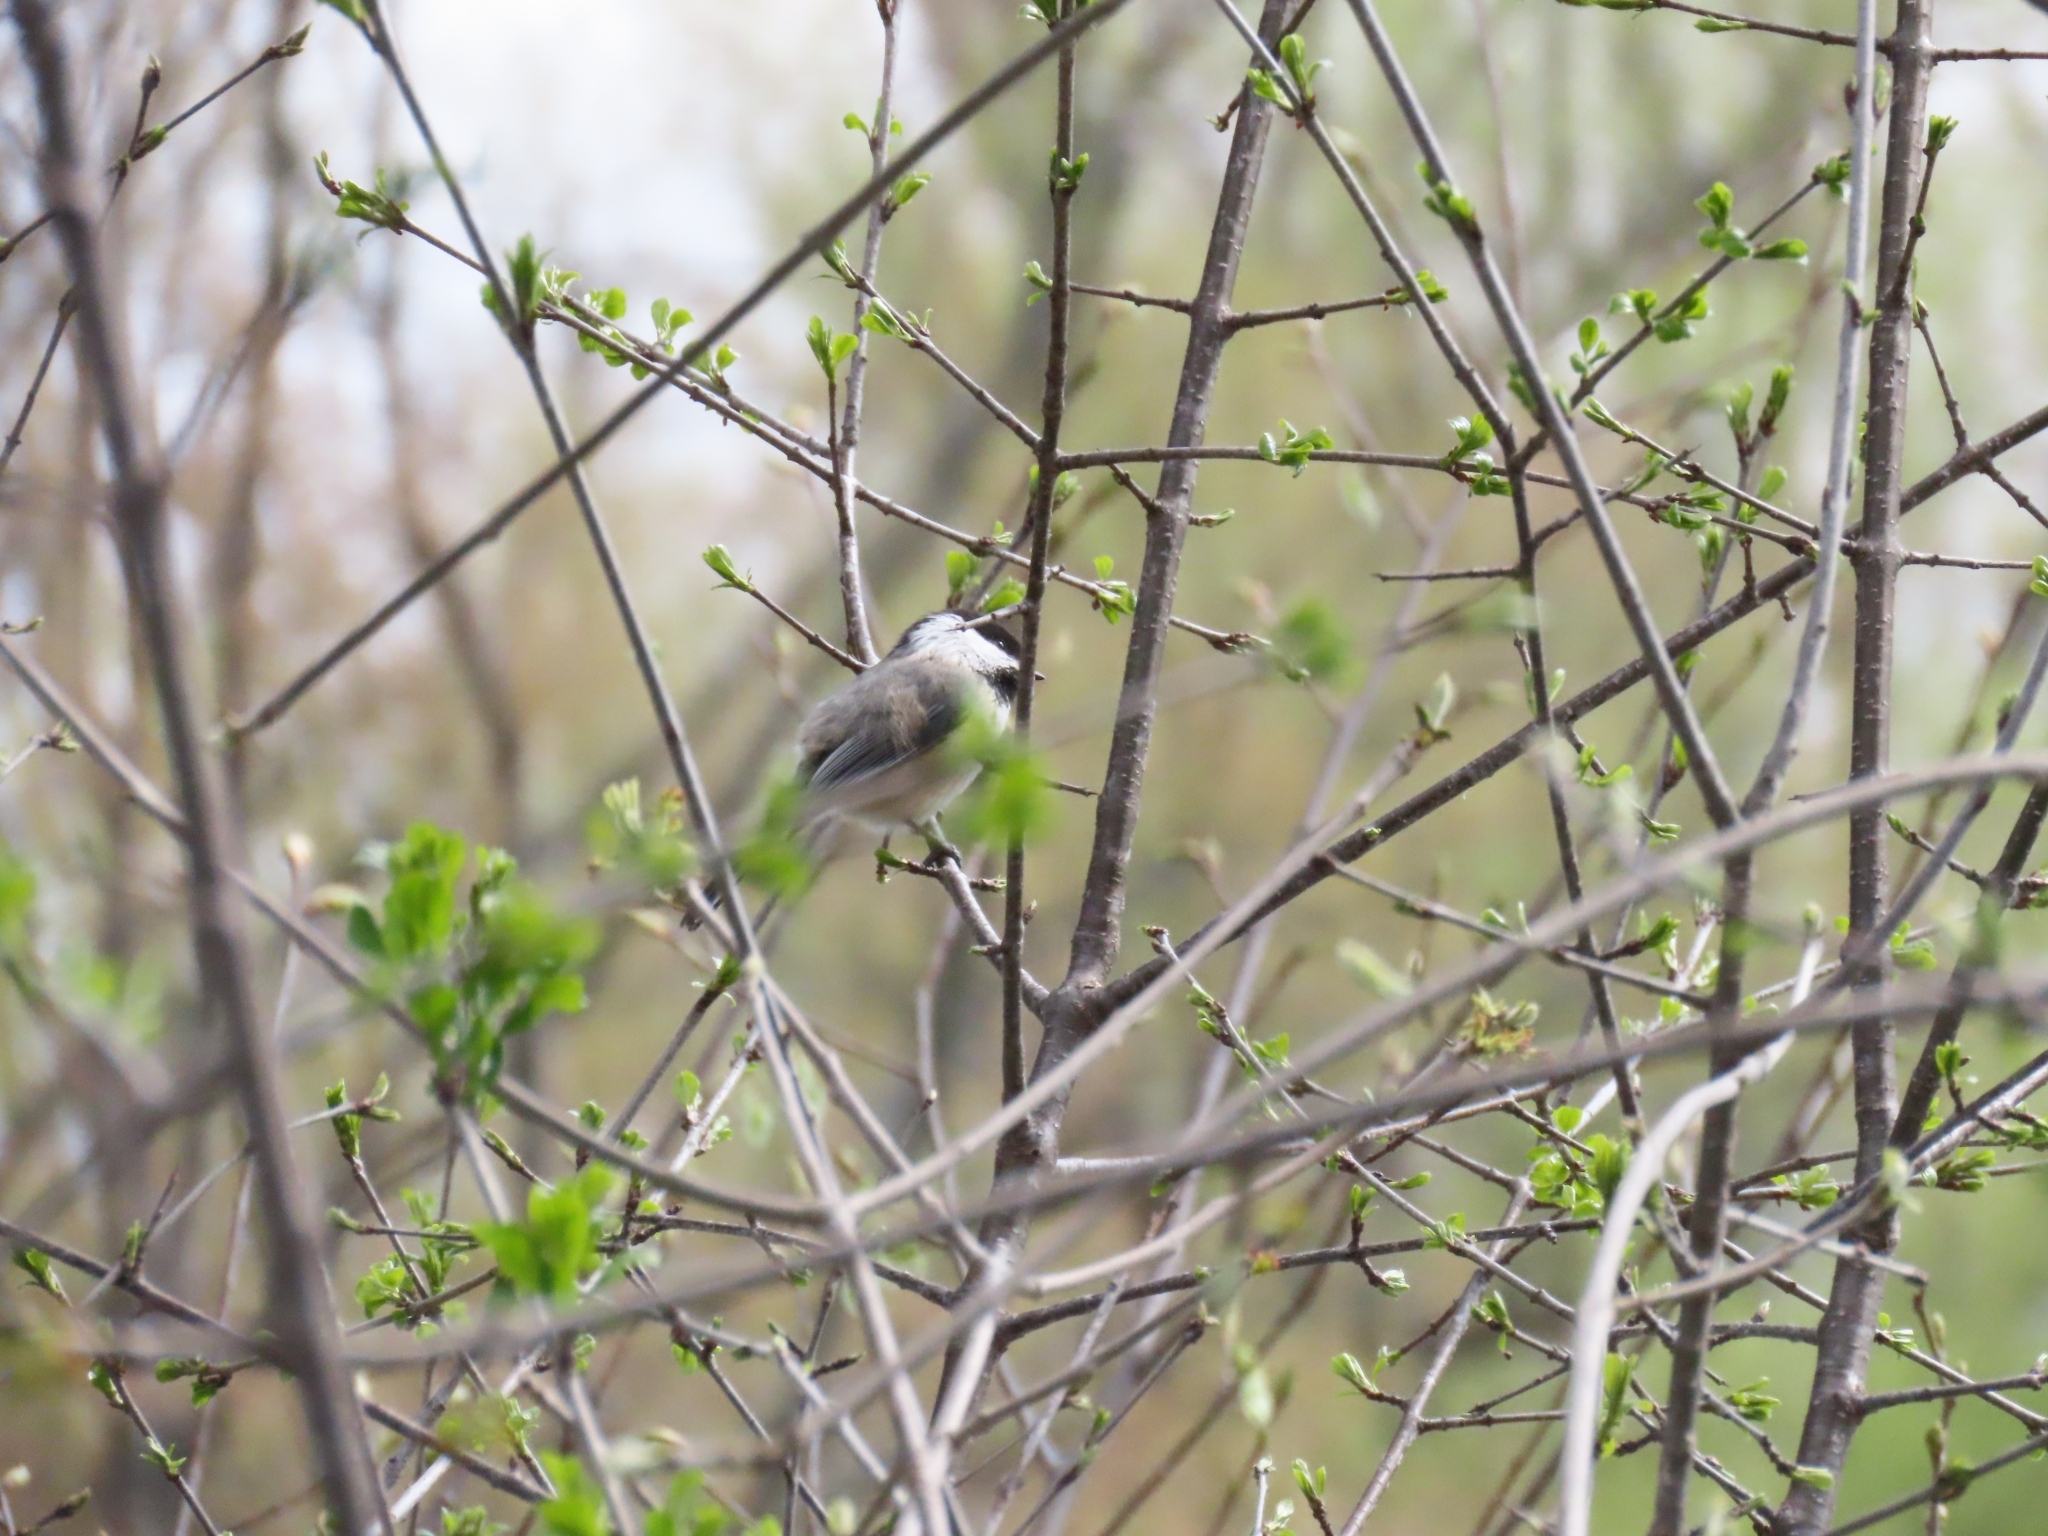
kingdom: Animalia
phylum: Chordata
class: Aves
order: Passeriformes
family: Paridae
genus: Poecile
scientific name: Poecile atricapillus
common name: Black-capped chickadee
